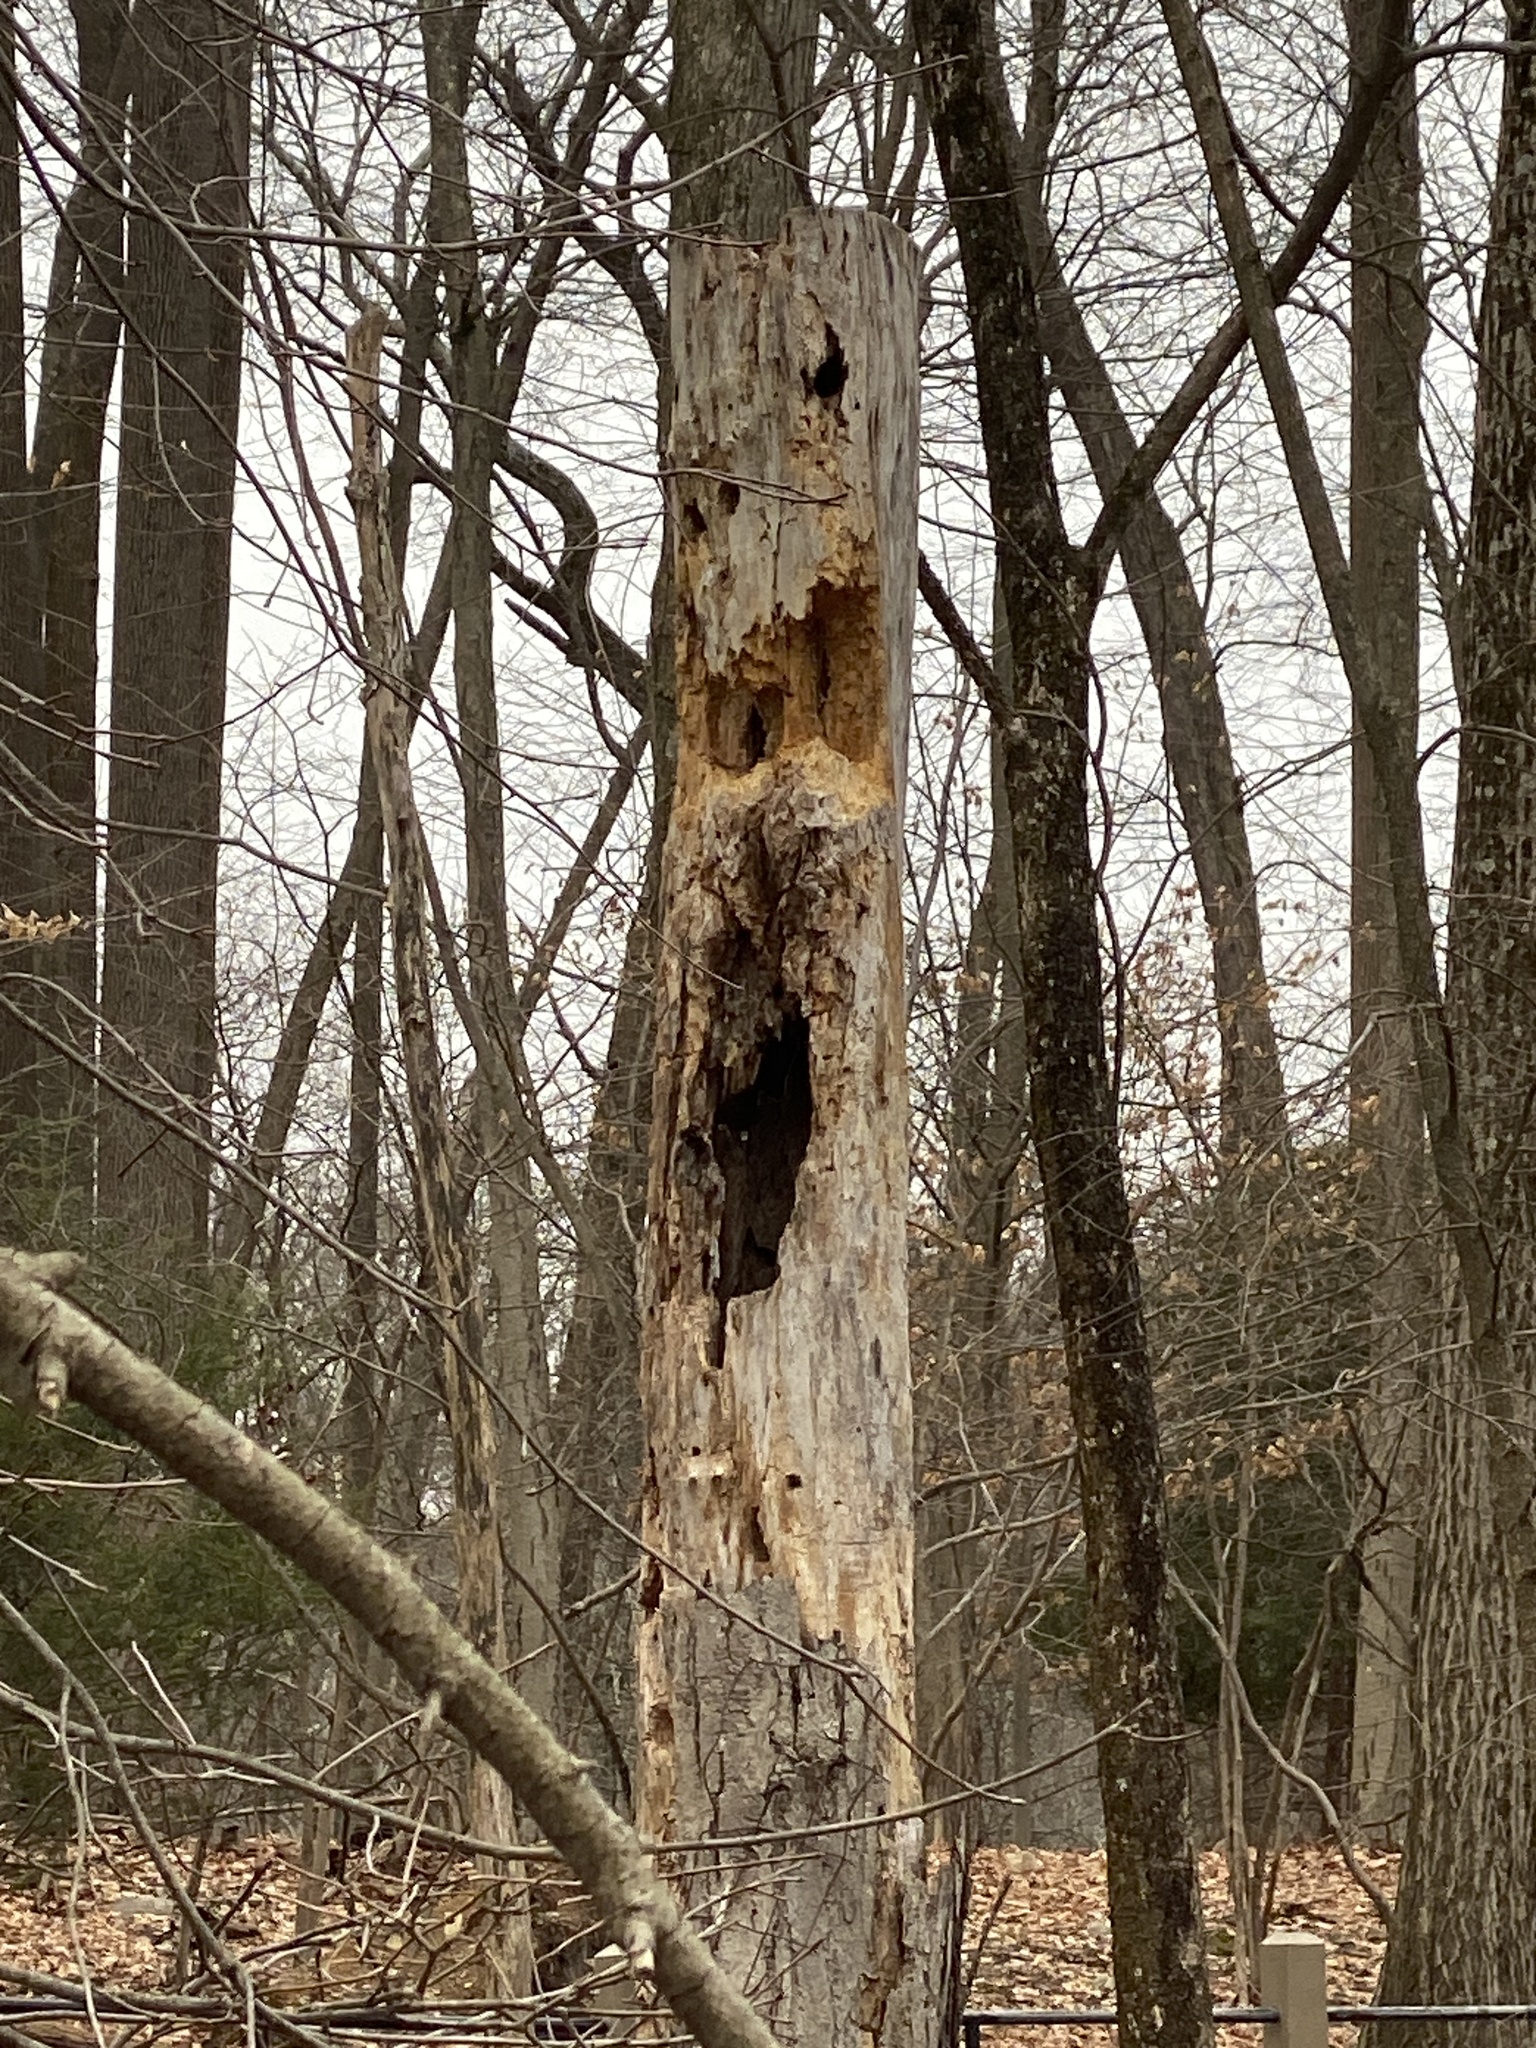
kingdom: Animalia
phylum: Chordata
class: Aves
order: Piciformes
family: Picidae
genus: Dryocopus
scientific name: Dryocopus pileatus
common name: Pileated woodpecker
